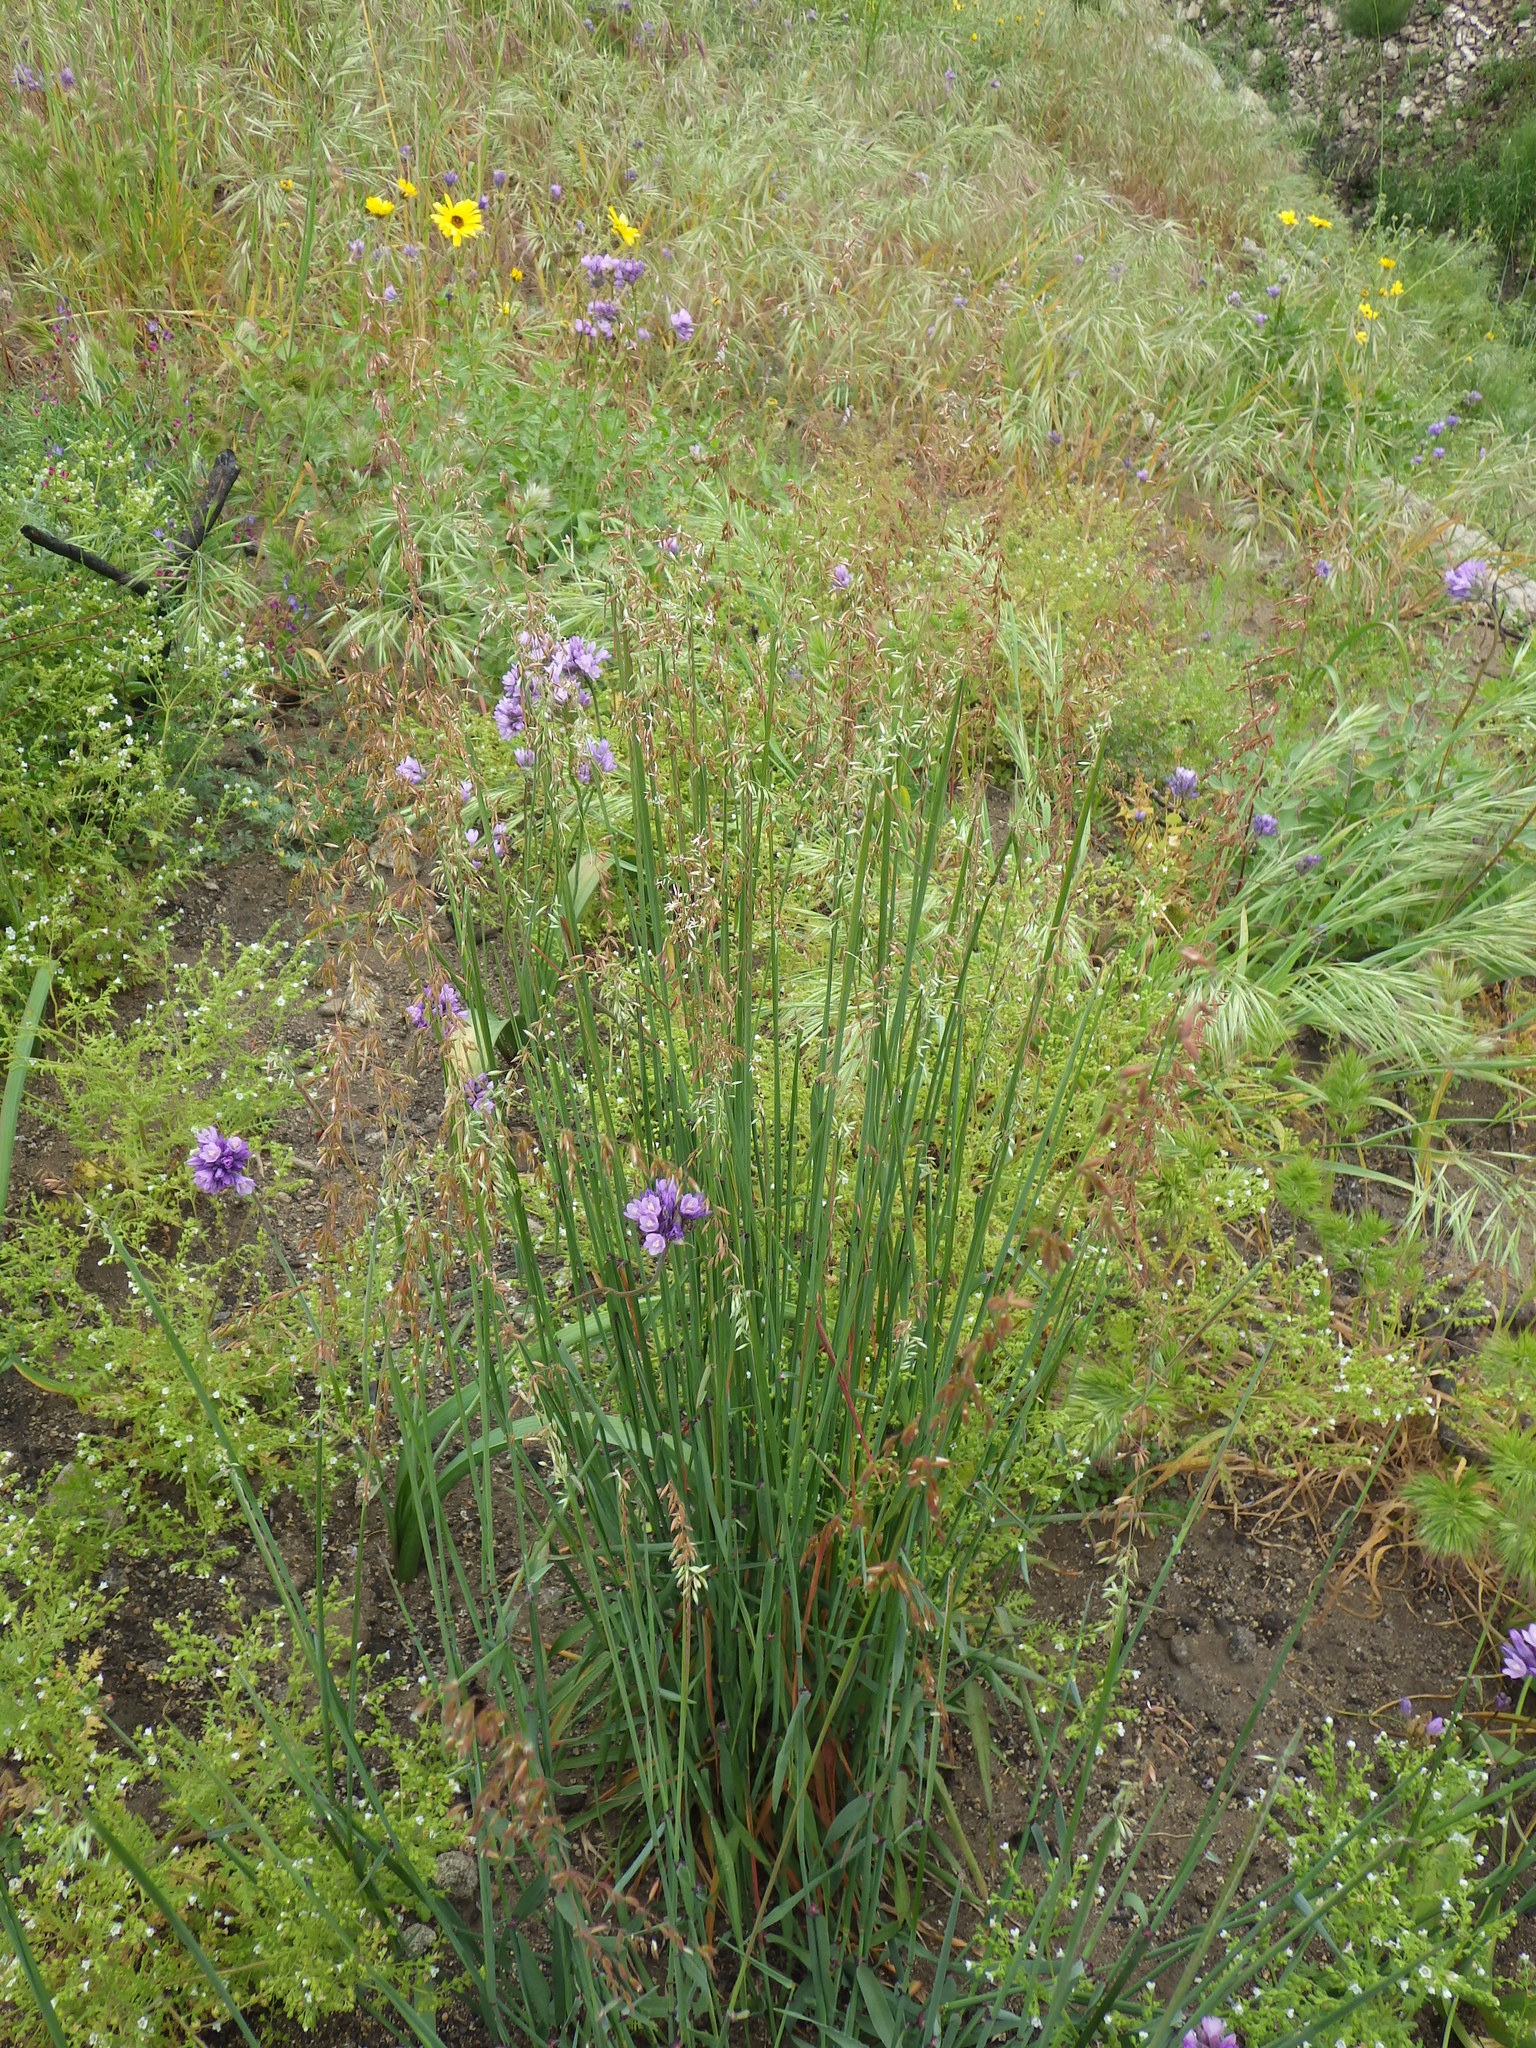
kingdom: Plantae
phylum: Tracheophyta
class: Liliopsida
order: Poales
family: Poaceae
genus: Ehrharta
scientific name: Ehrharta calycina
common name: Perennial veldtgrass
